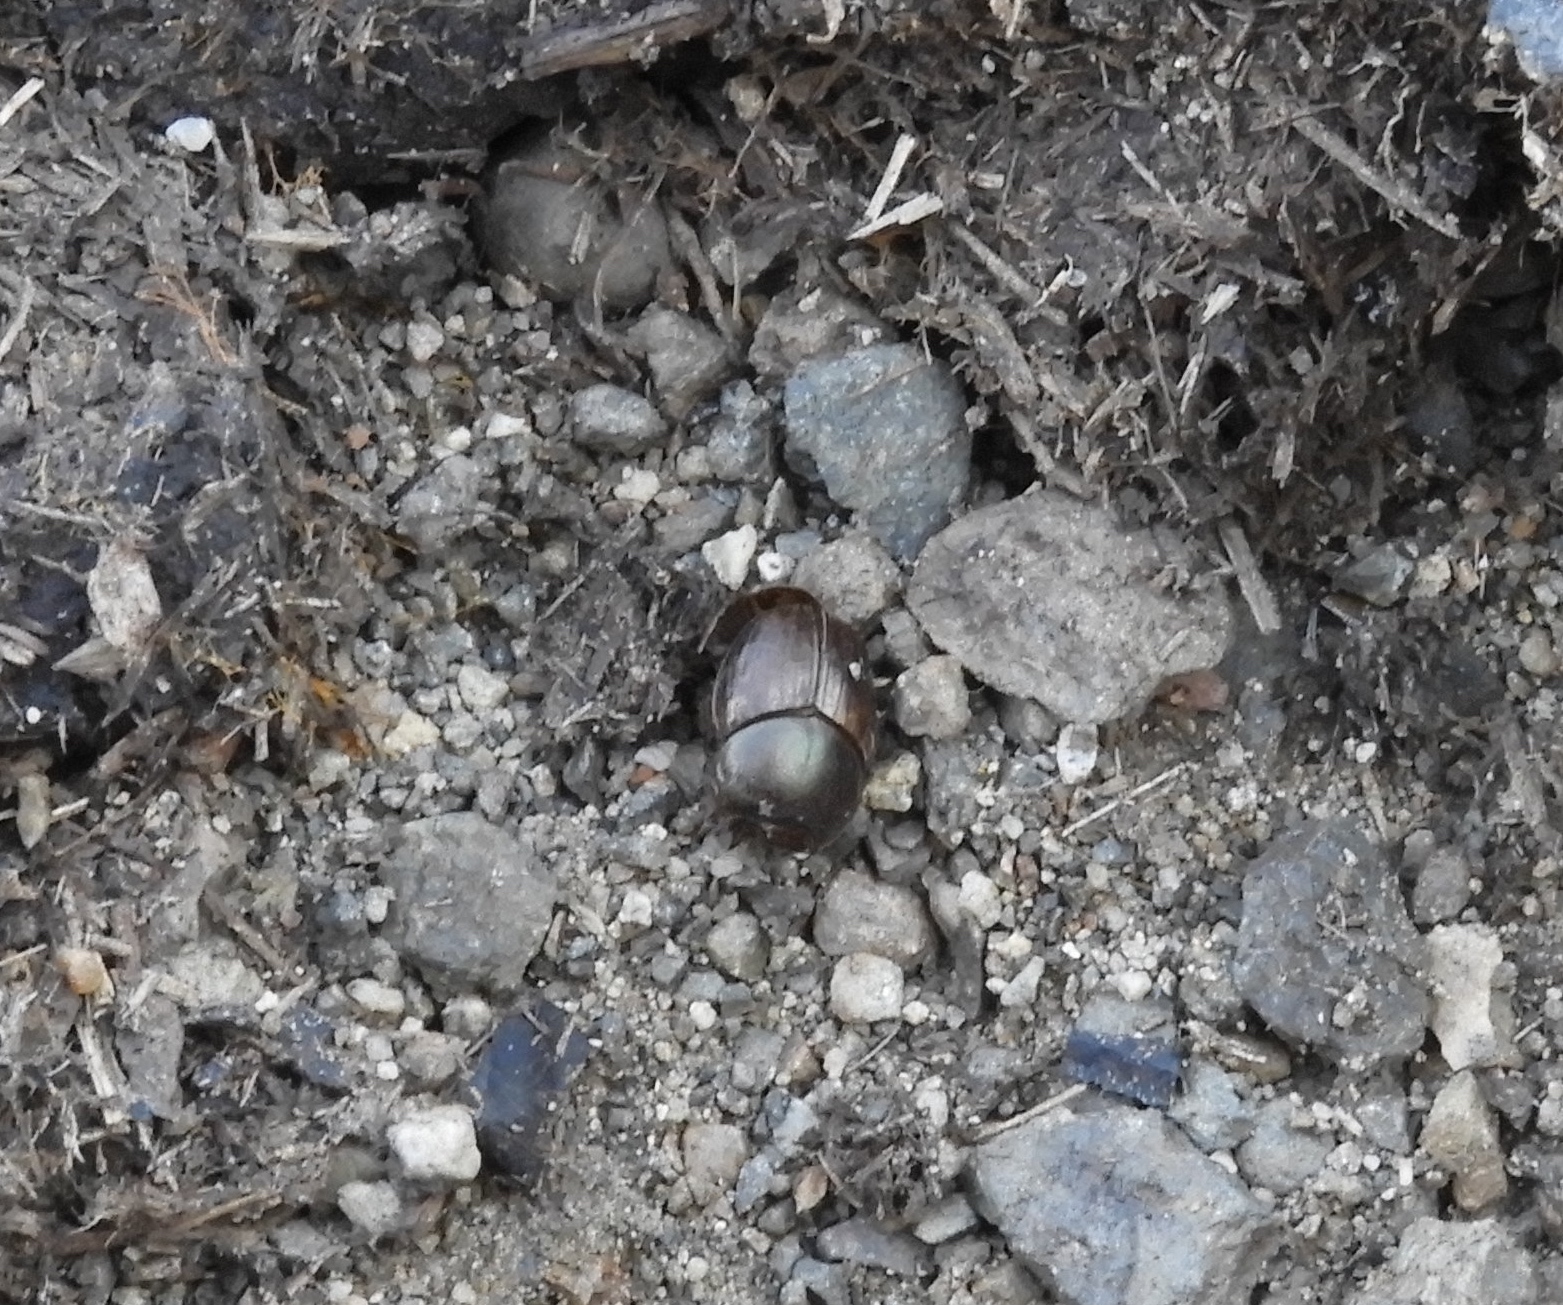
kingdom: Animalia
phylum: Arthropoda
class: Insecta
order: Coleoptera
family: Scarabaeidae
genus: Digitonthophagus
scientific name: Digitonthophagus gazella
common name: Brown dung beetle
